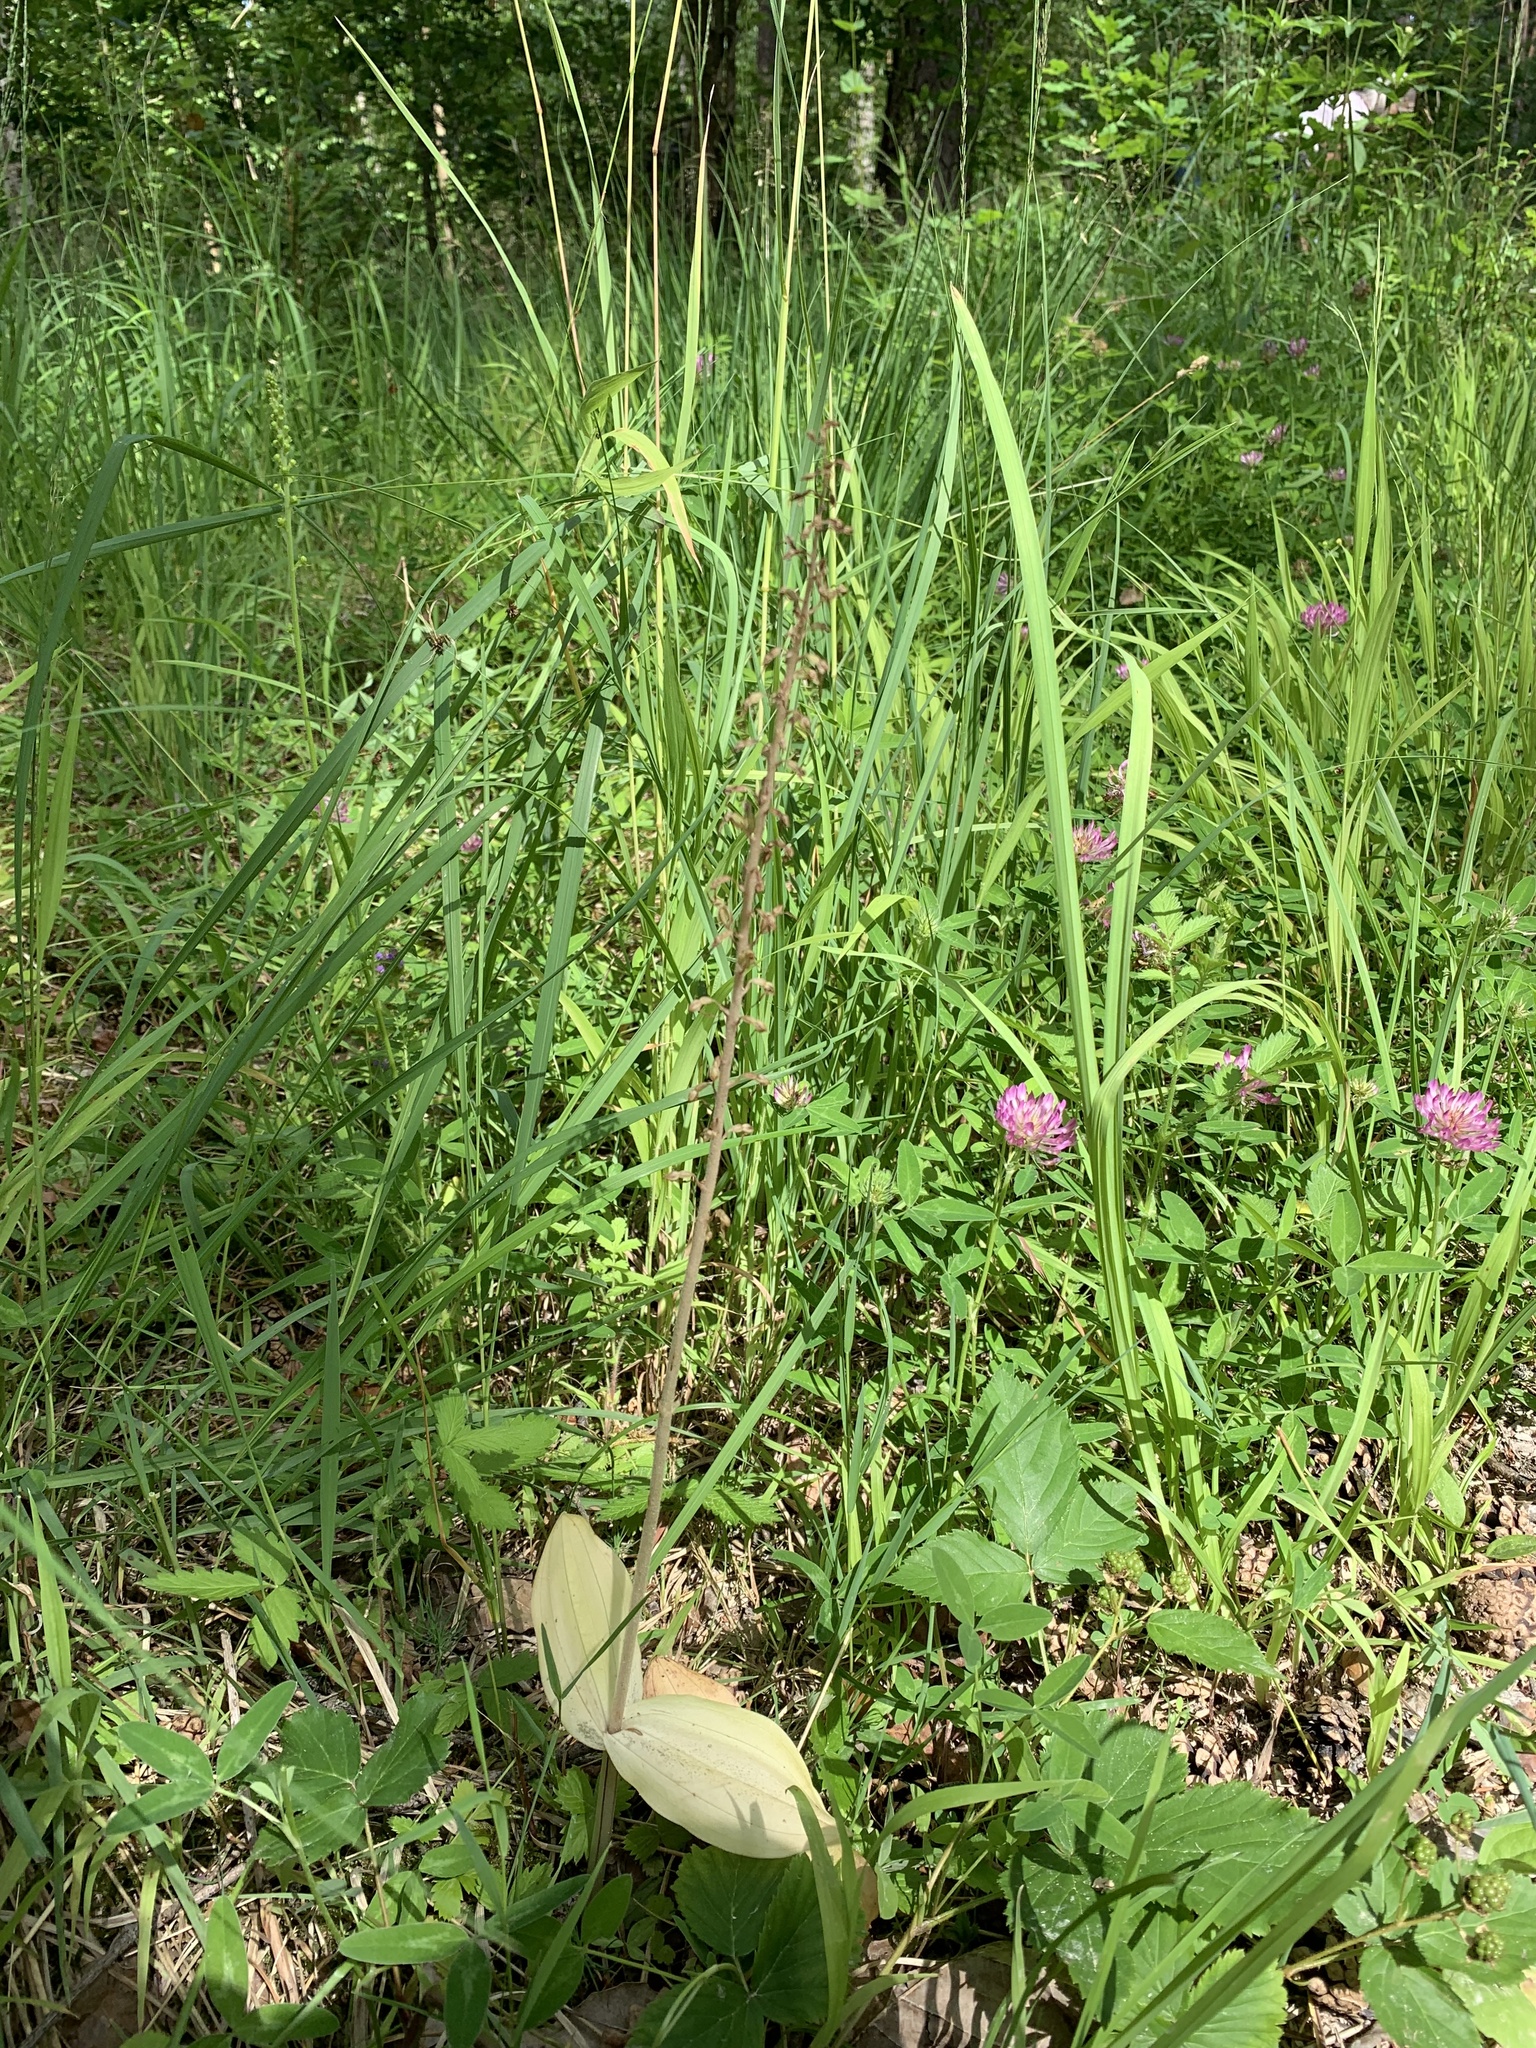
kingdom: Plantae
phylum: Tracheophyta
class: Liliopsida
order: Asparagales
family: Orchidaceae
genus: Neottia
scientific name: Neottia ovata
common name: Common twayblade
